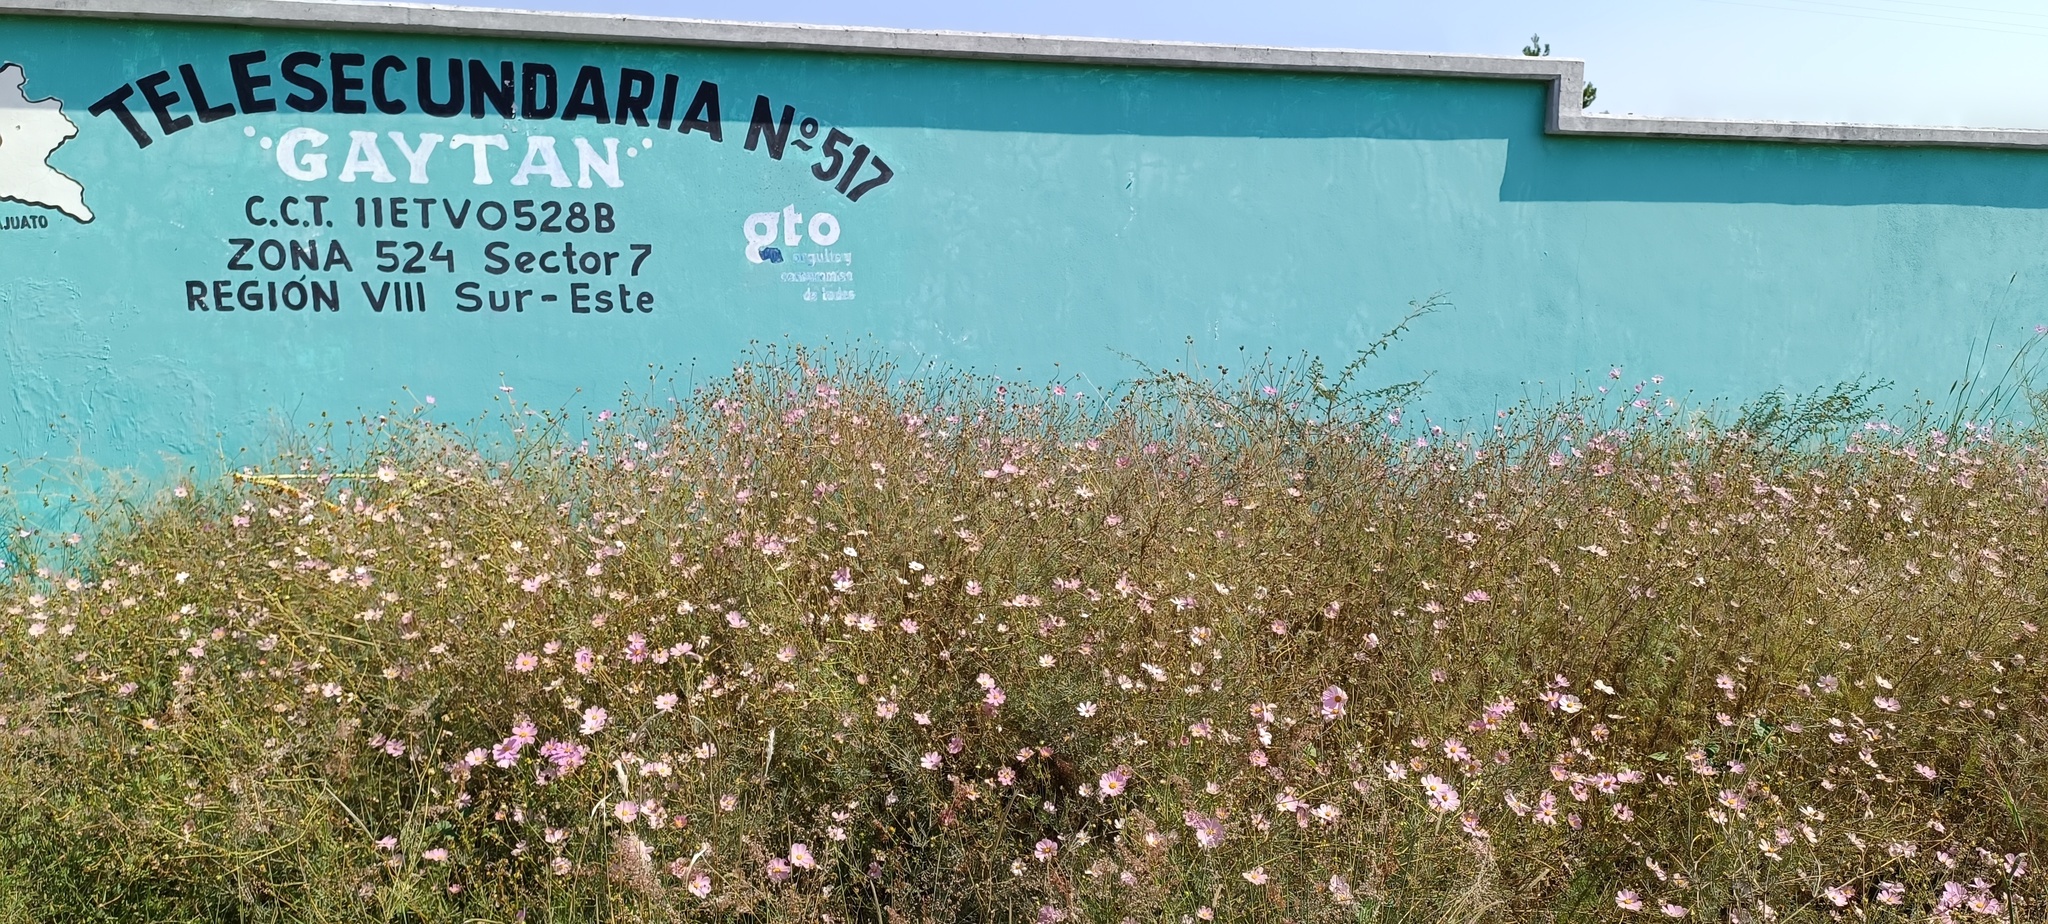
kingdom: Plantae
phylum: Tracheophyta
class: Magnoliopsida
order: Asterales
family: Asteraceae
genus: Cosmos
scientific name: Cosmos bipinnatus
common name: Garden cosmos
